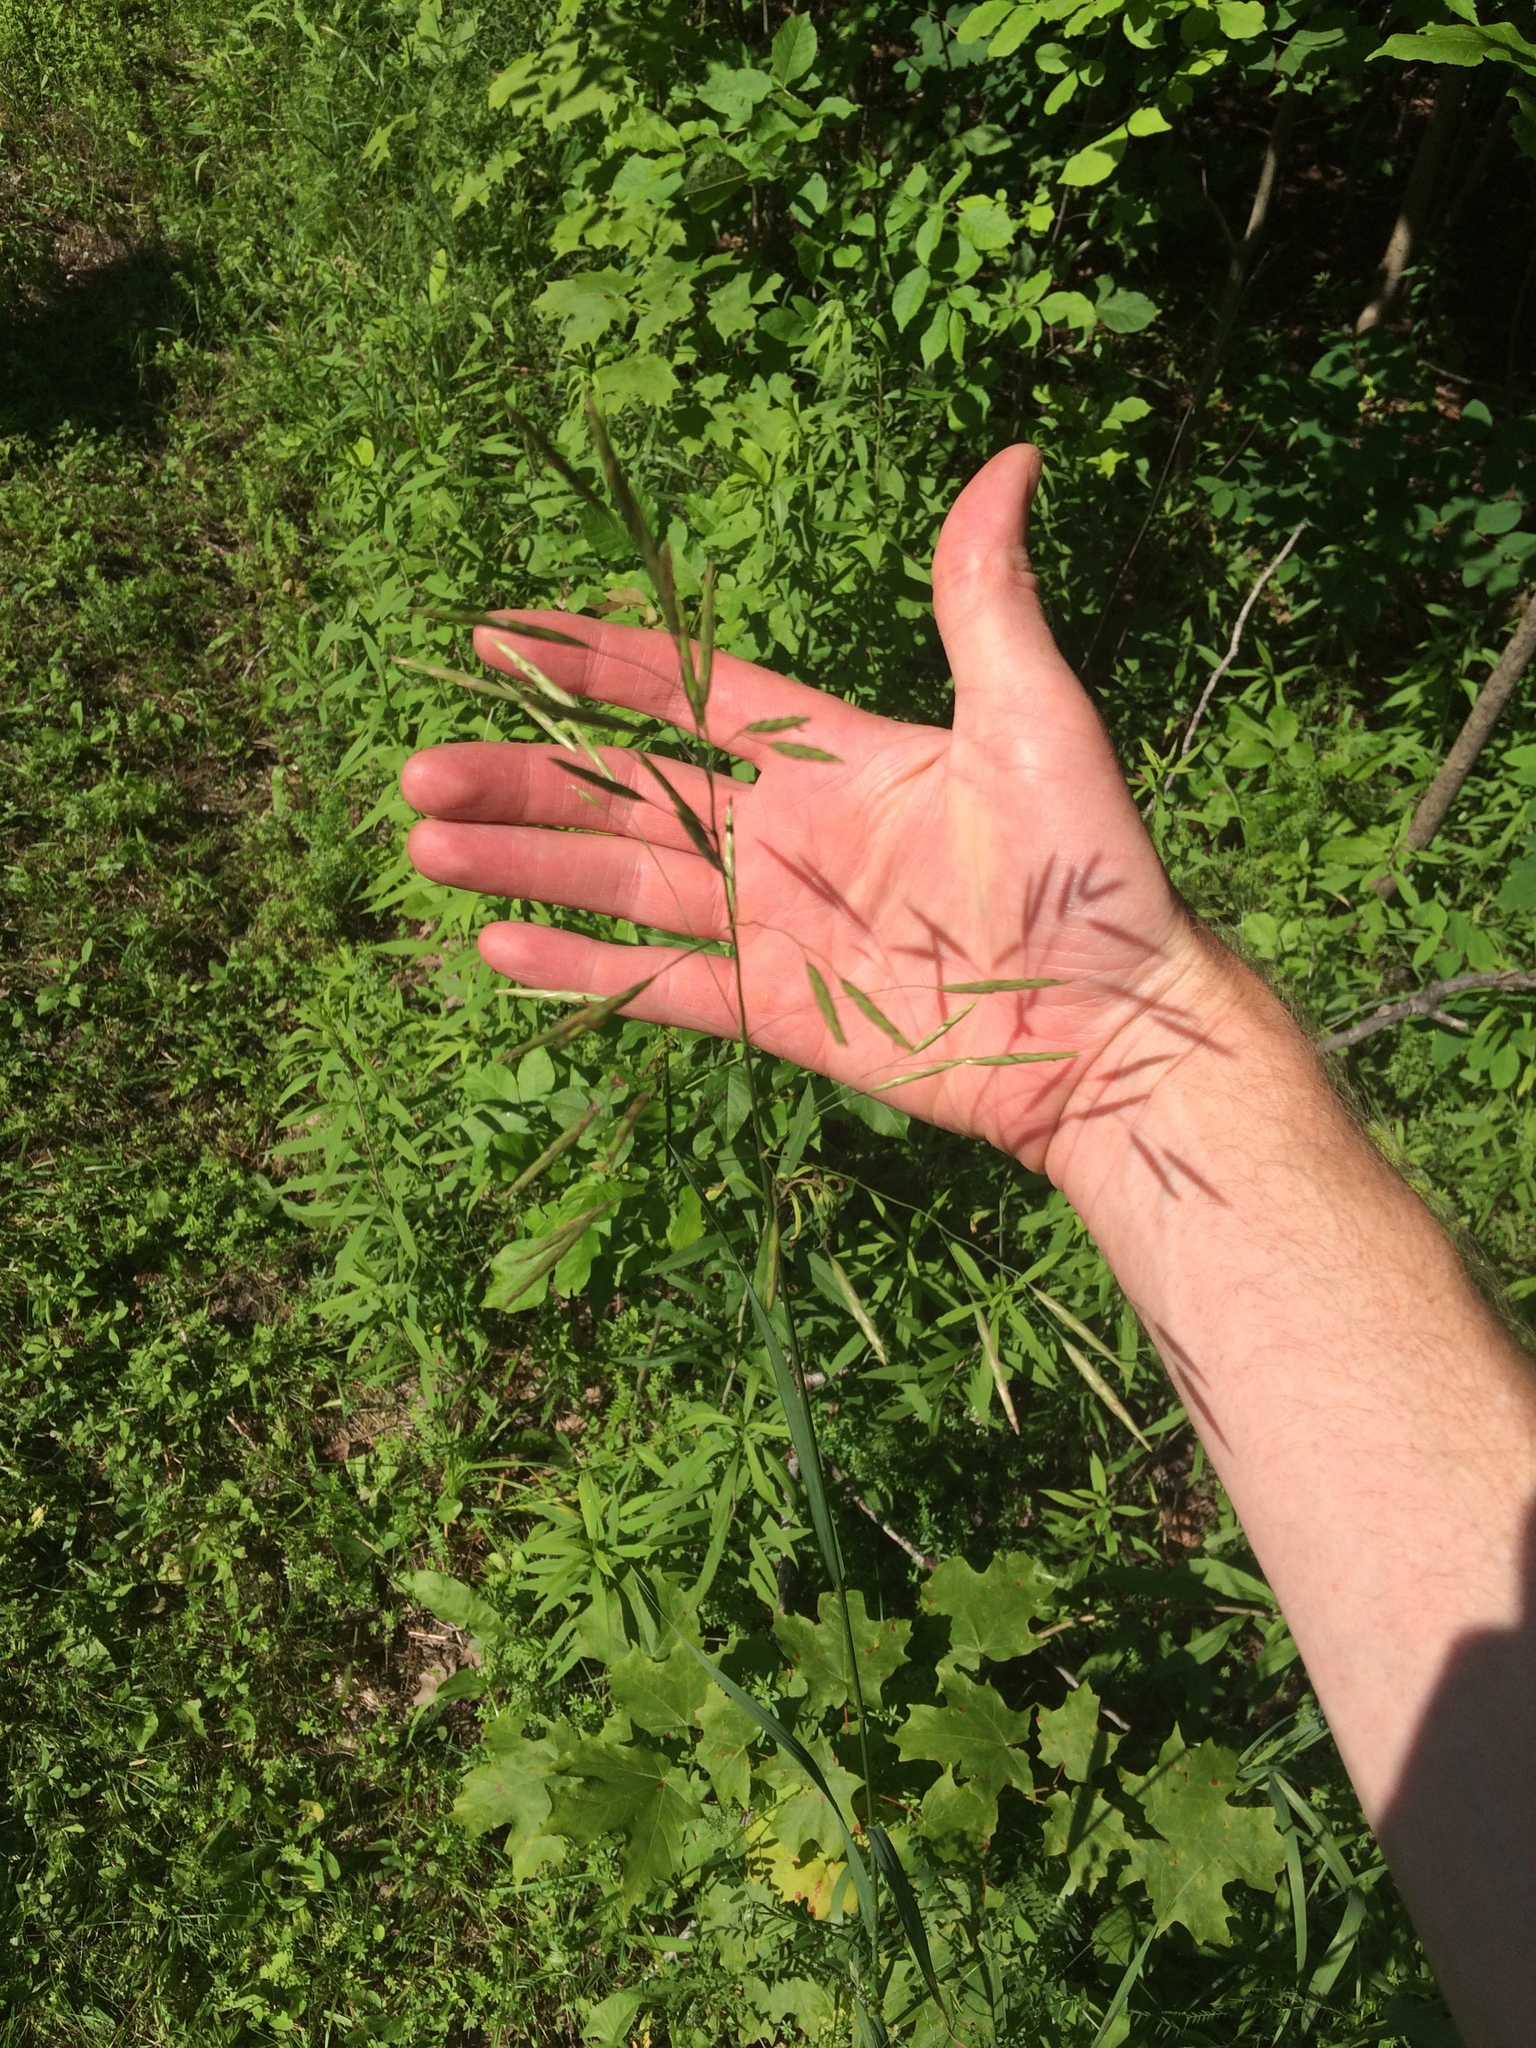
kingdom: Plantae
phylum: Tracheophyta
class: Liliopsida
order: Poales
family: Poaceae
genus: Bromus
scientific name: Bromus inermis
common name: Smooth brome
